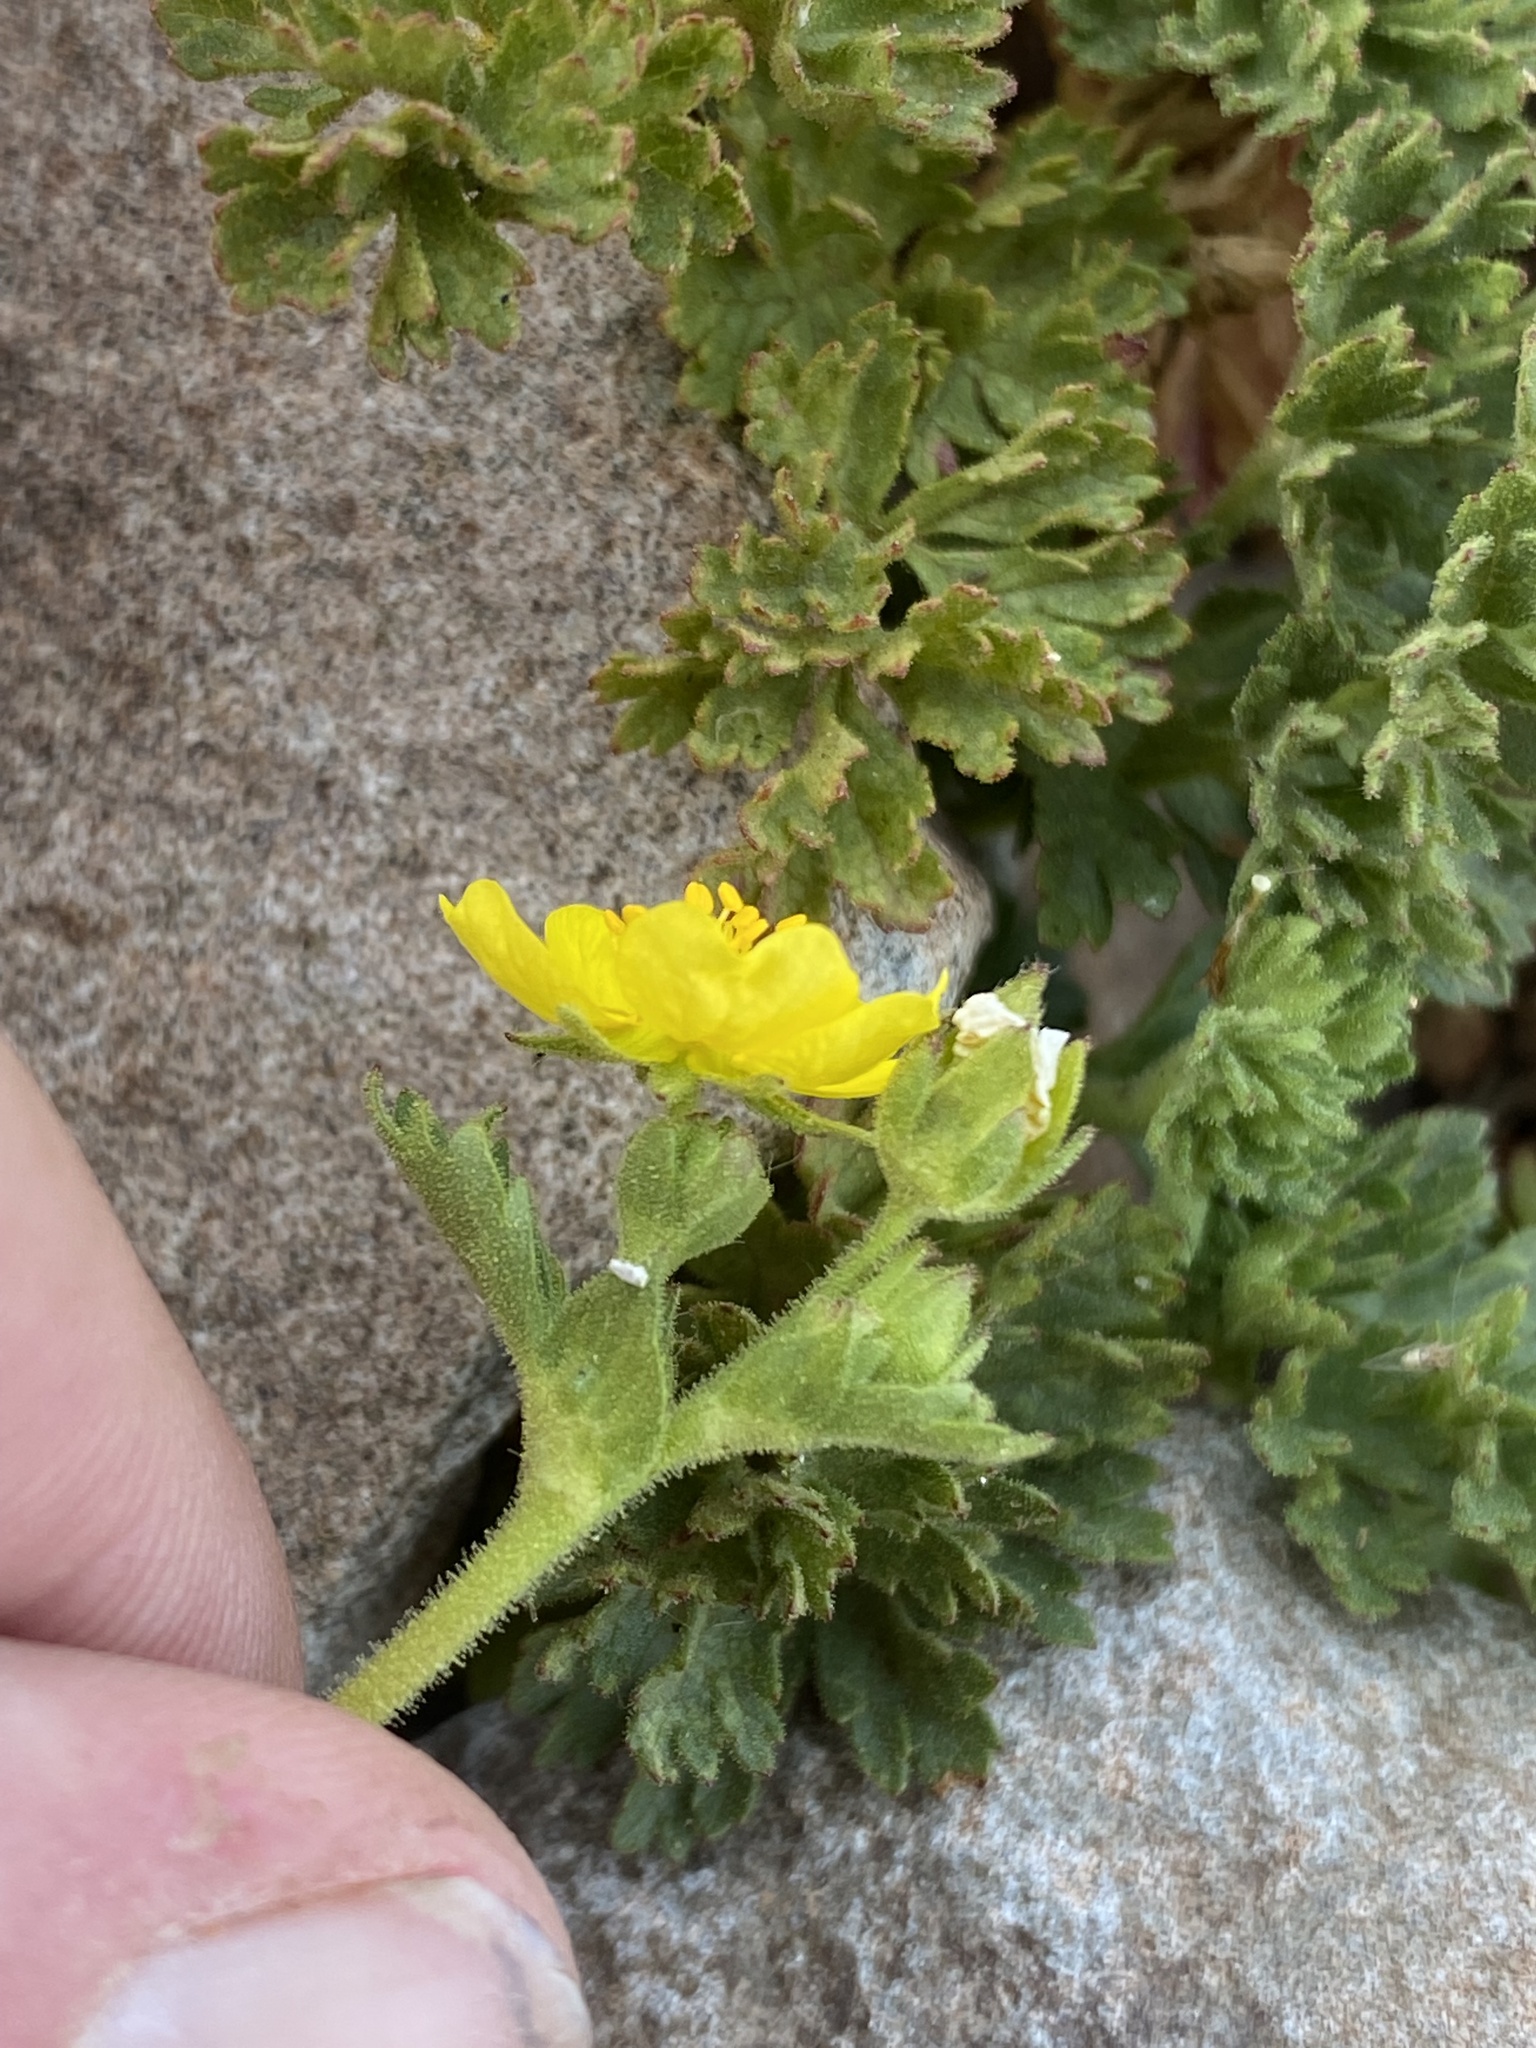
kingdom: Plantae
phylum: Tracheophyta
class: Magnoliopsida
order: Rosales
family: Rosaceae
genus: Potentilla
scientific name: Potentilla brevifolia
